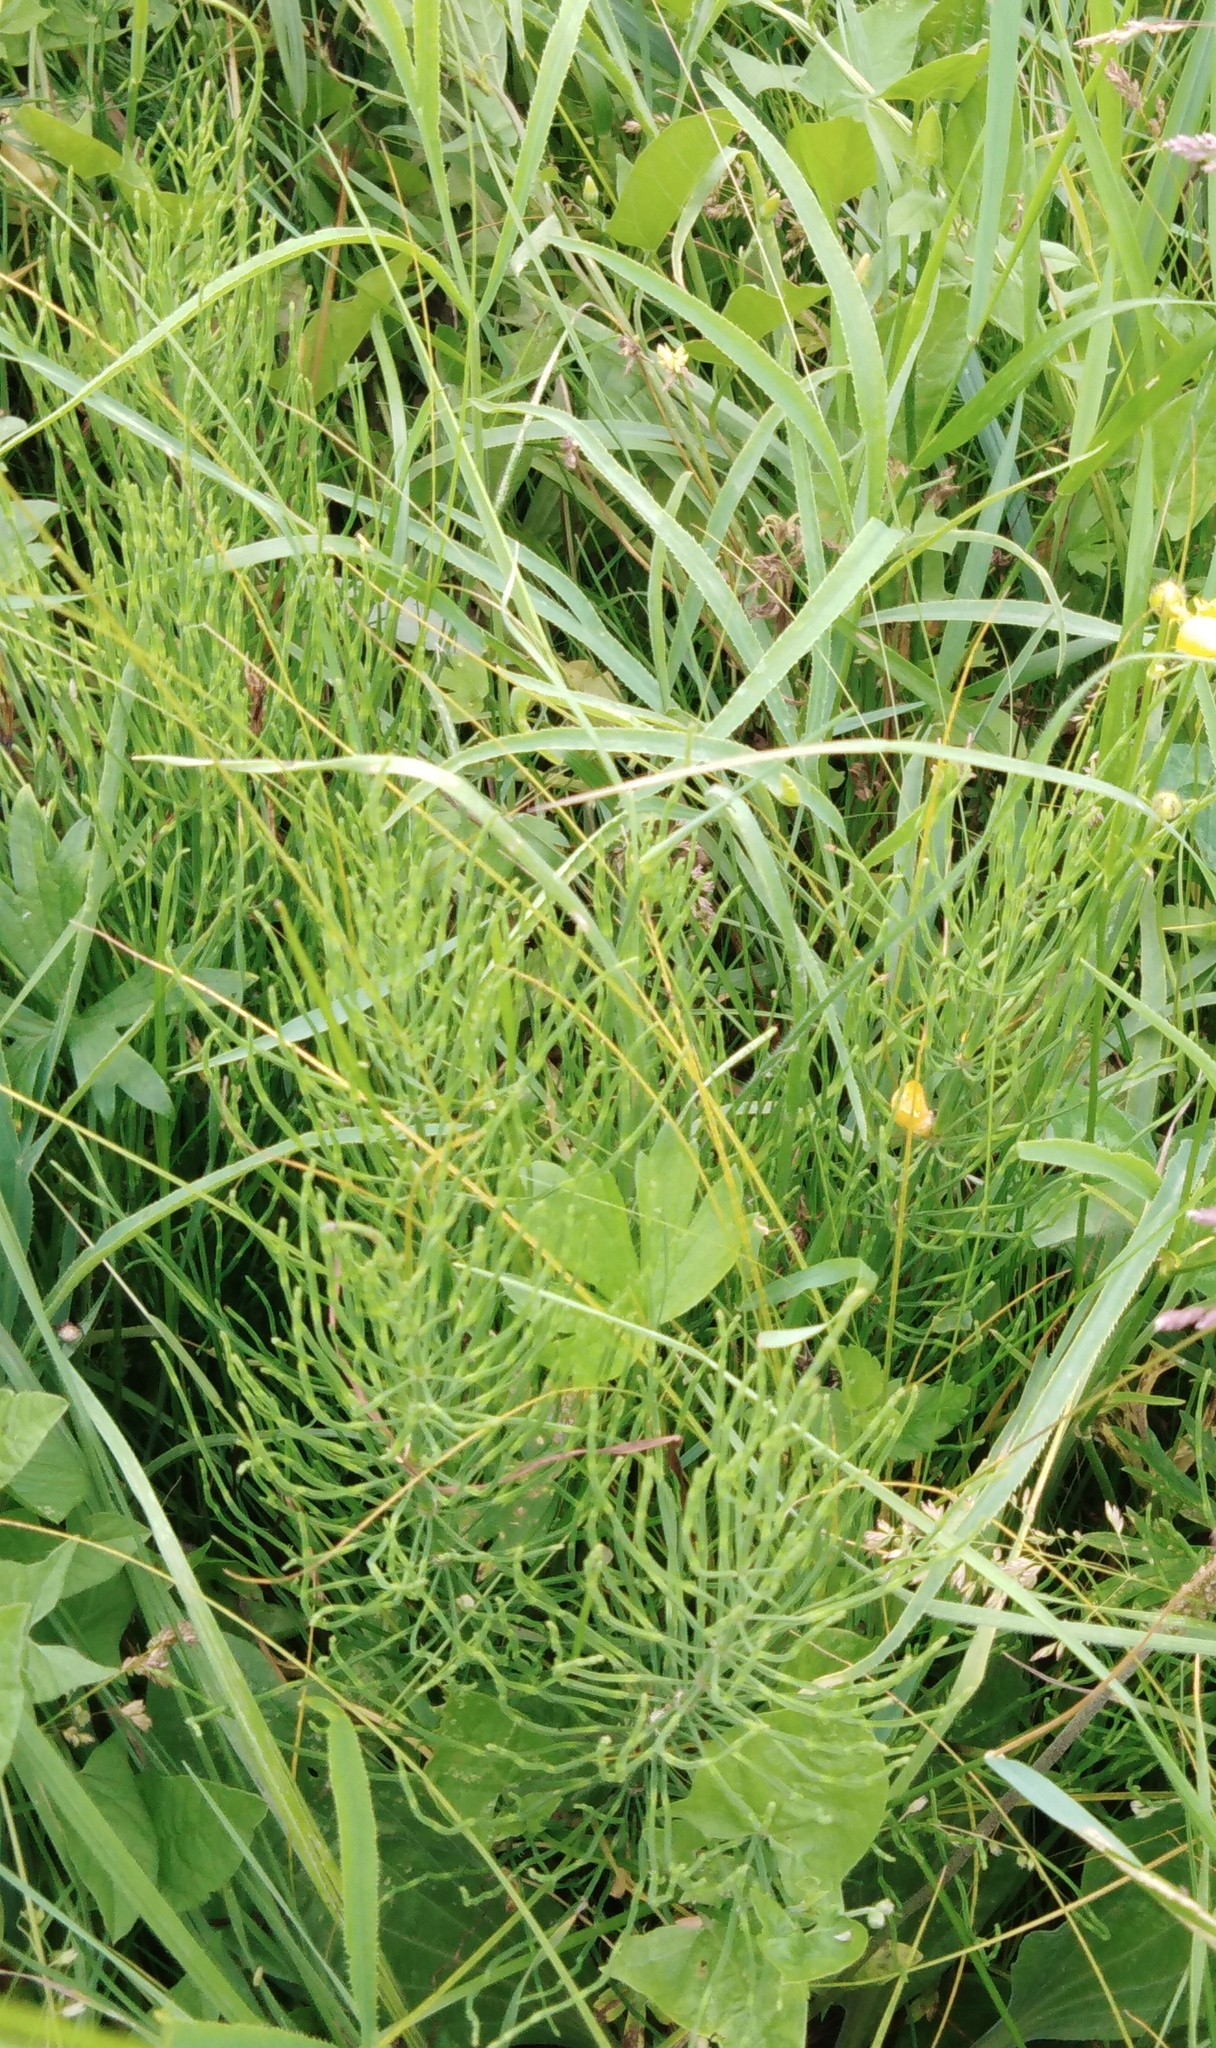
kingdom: Plantae
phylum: Tracheophyta
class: Polypodiopsida
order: Equisetales
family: Equisetaceae
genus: Equisetum
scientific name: Equisetum arvense
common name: Field horsetail
